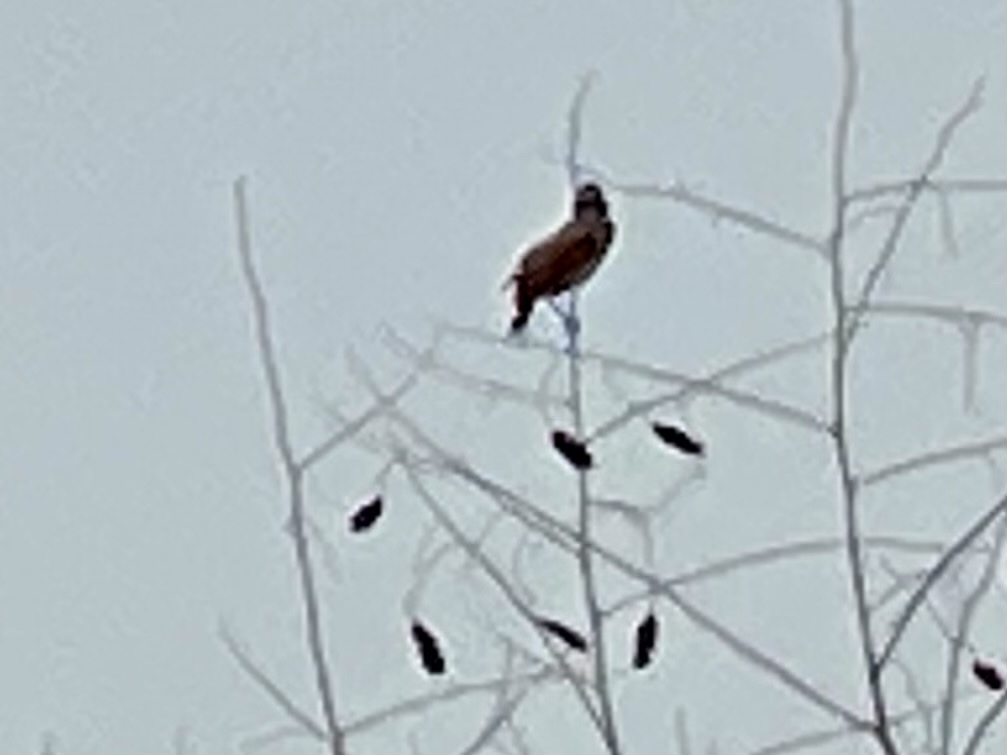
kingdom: Animalia
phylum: Chordata
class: Aves
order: Passeriformes
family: Cardinalidae
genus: Spiza
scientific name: Spiza americana
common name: Dickcissel
